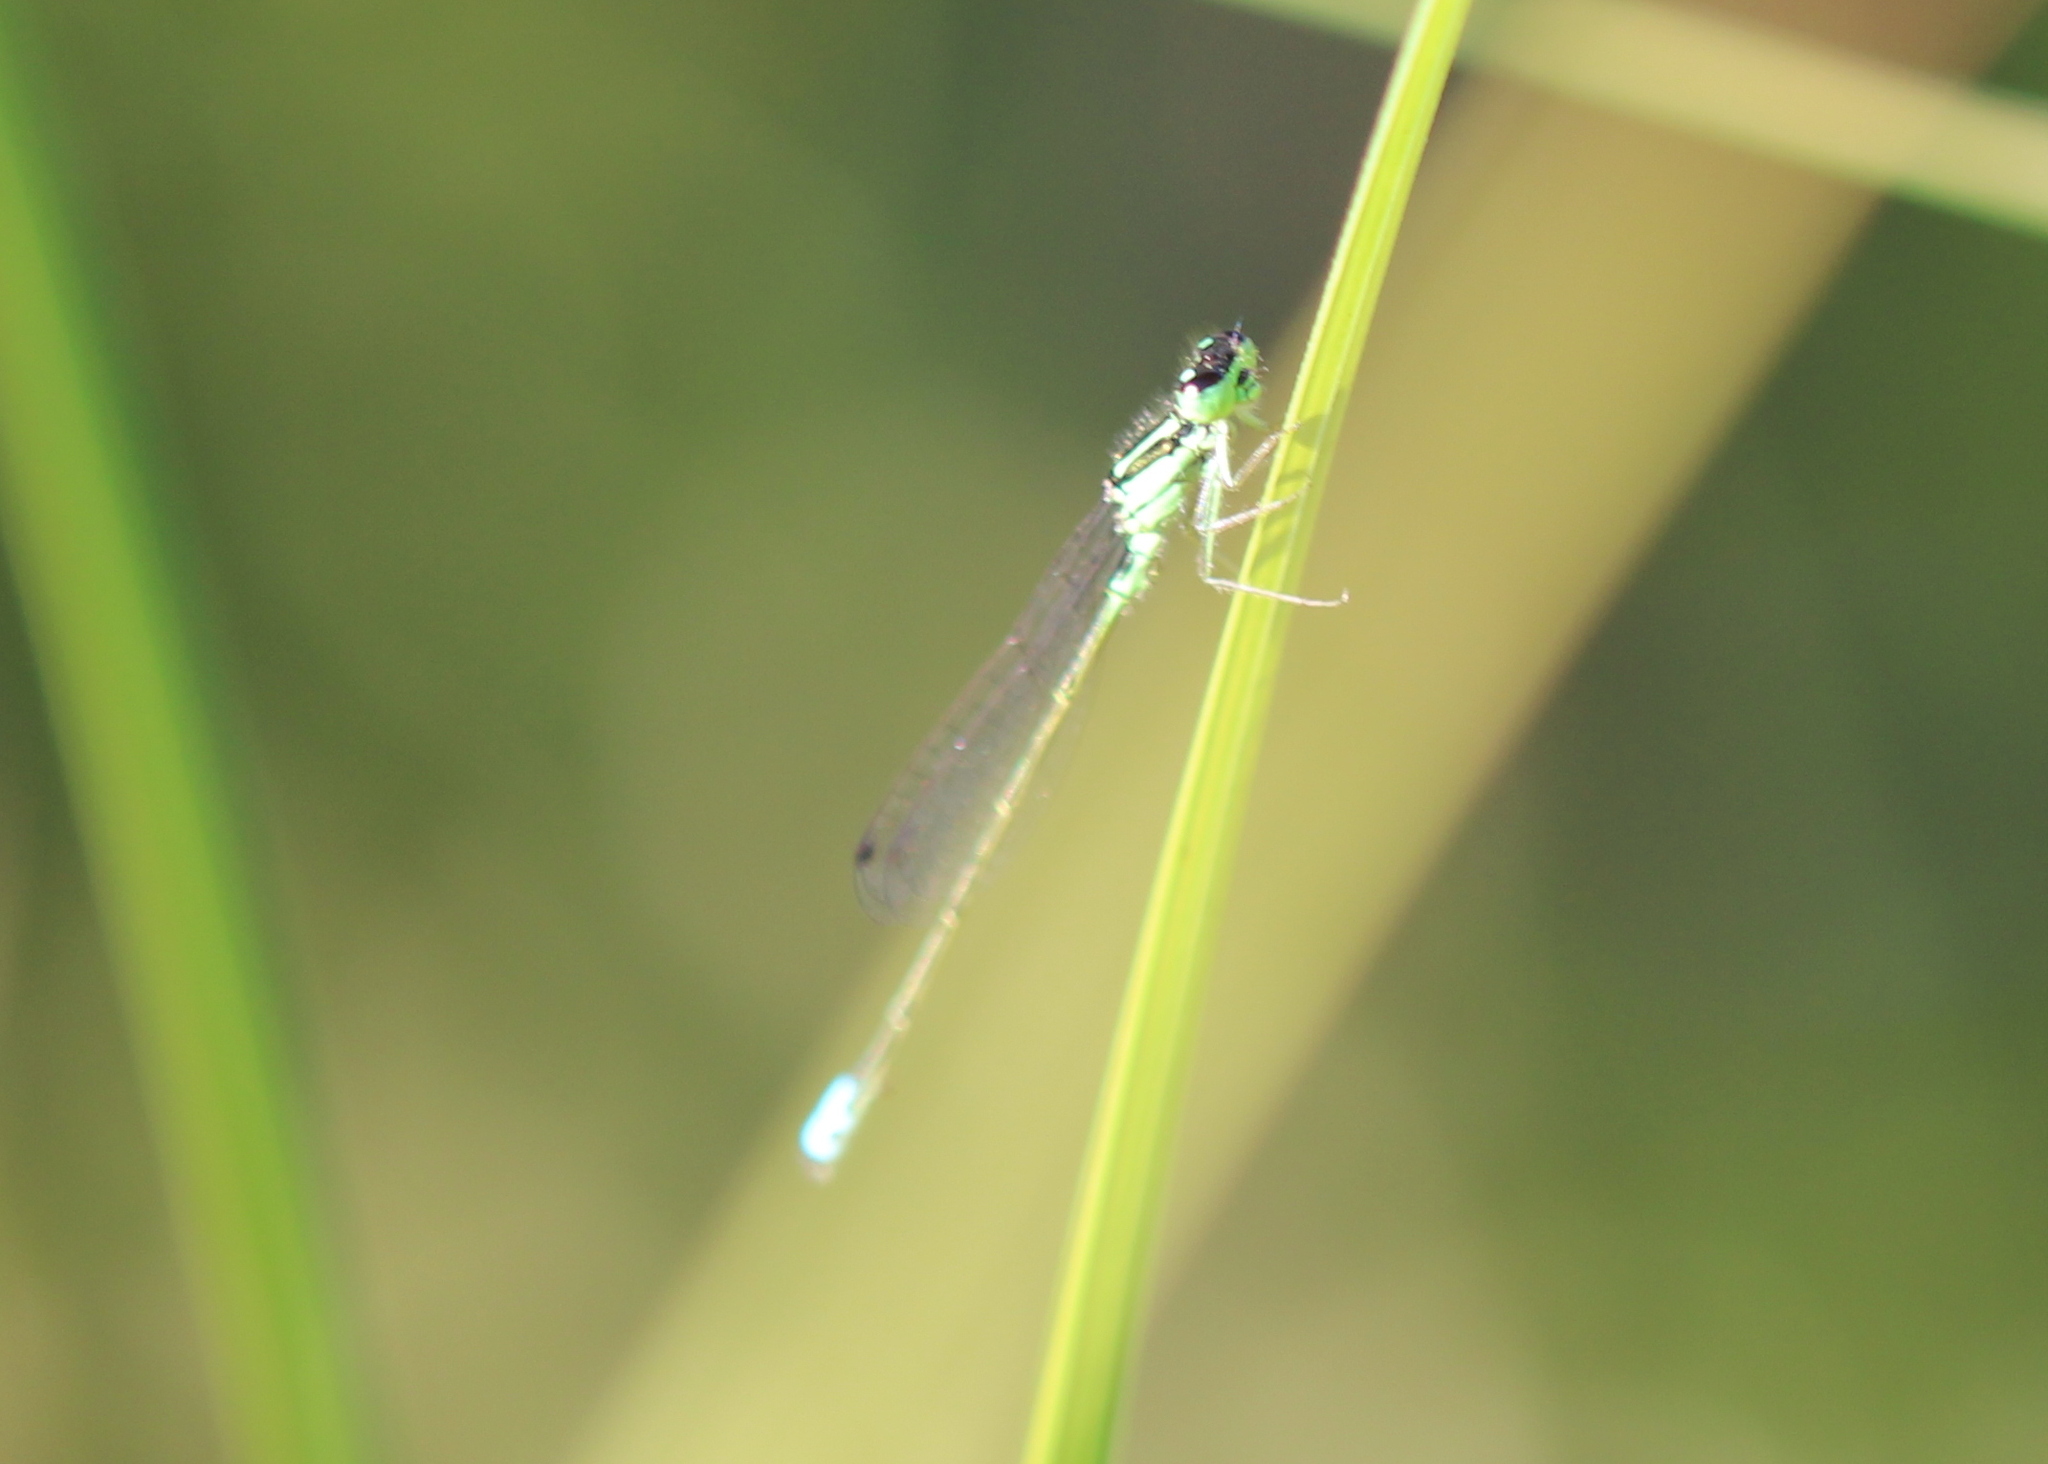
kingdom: Animalia
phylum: Arthropoda
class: Insecta
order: Odonata
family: Coenagrionidae
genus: Ischnura
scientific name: Ischnura verticalis
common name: Eastern forktail
